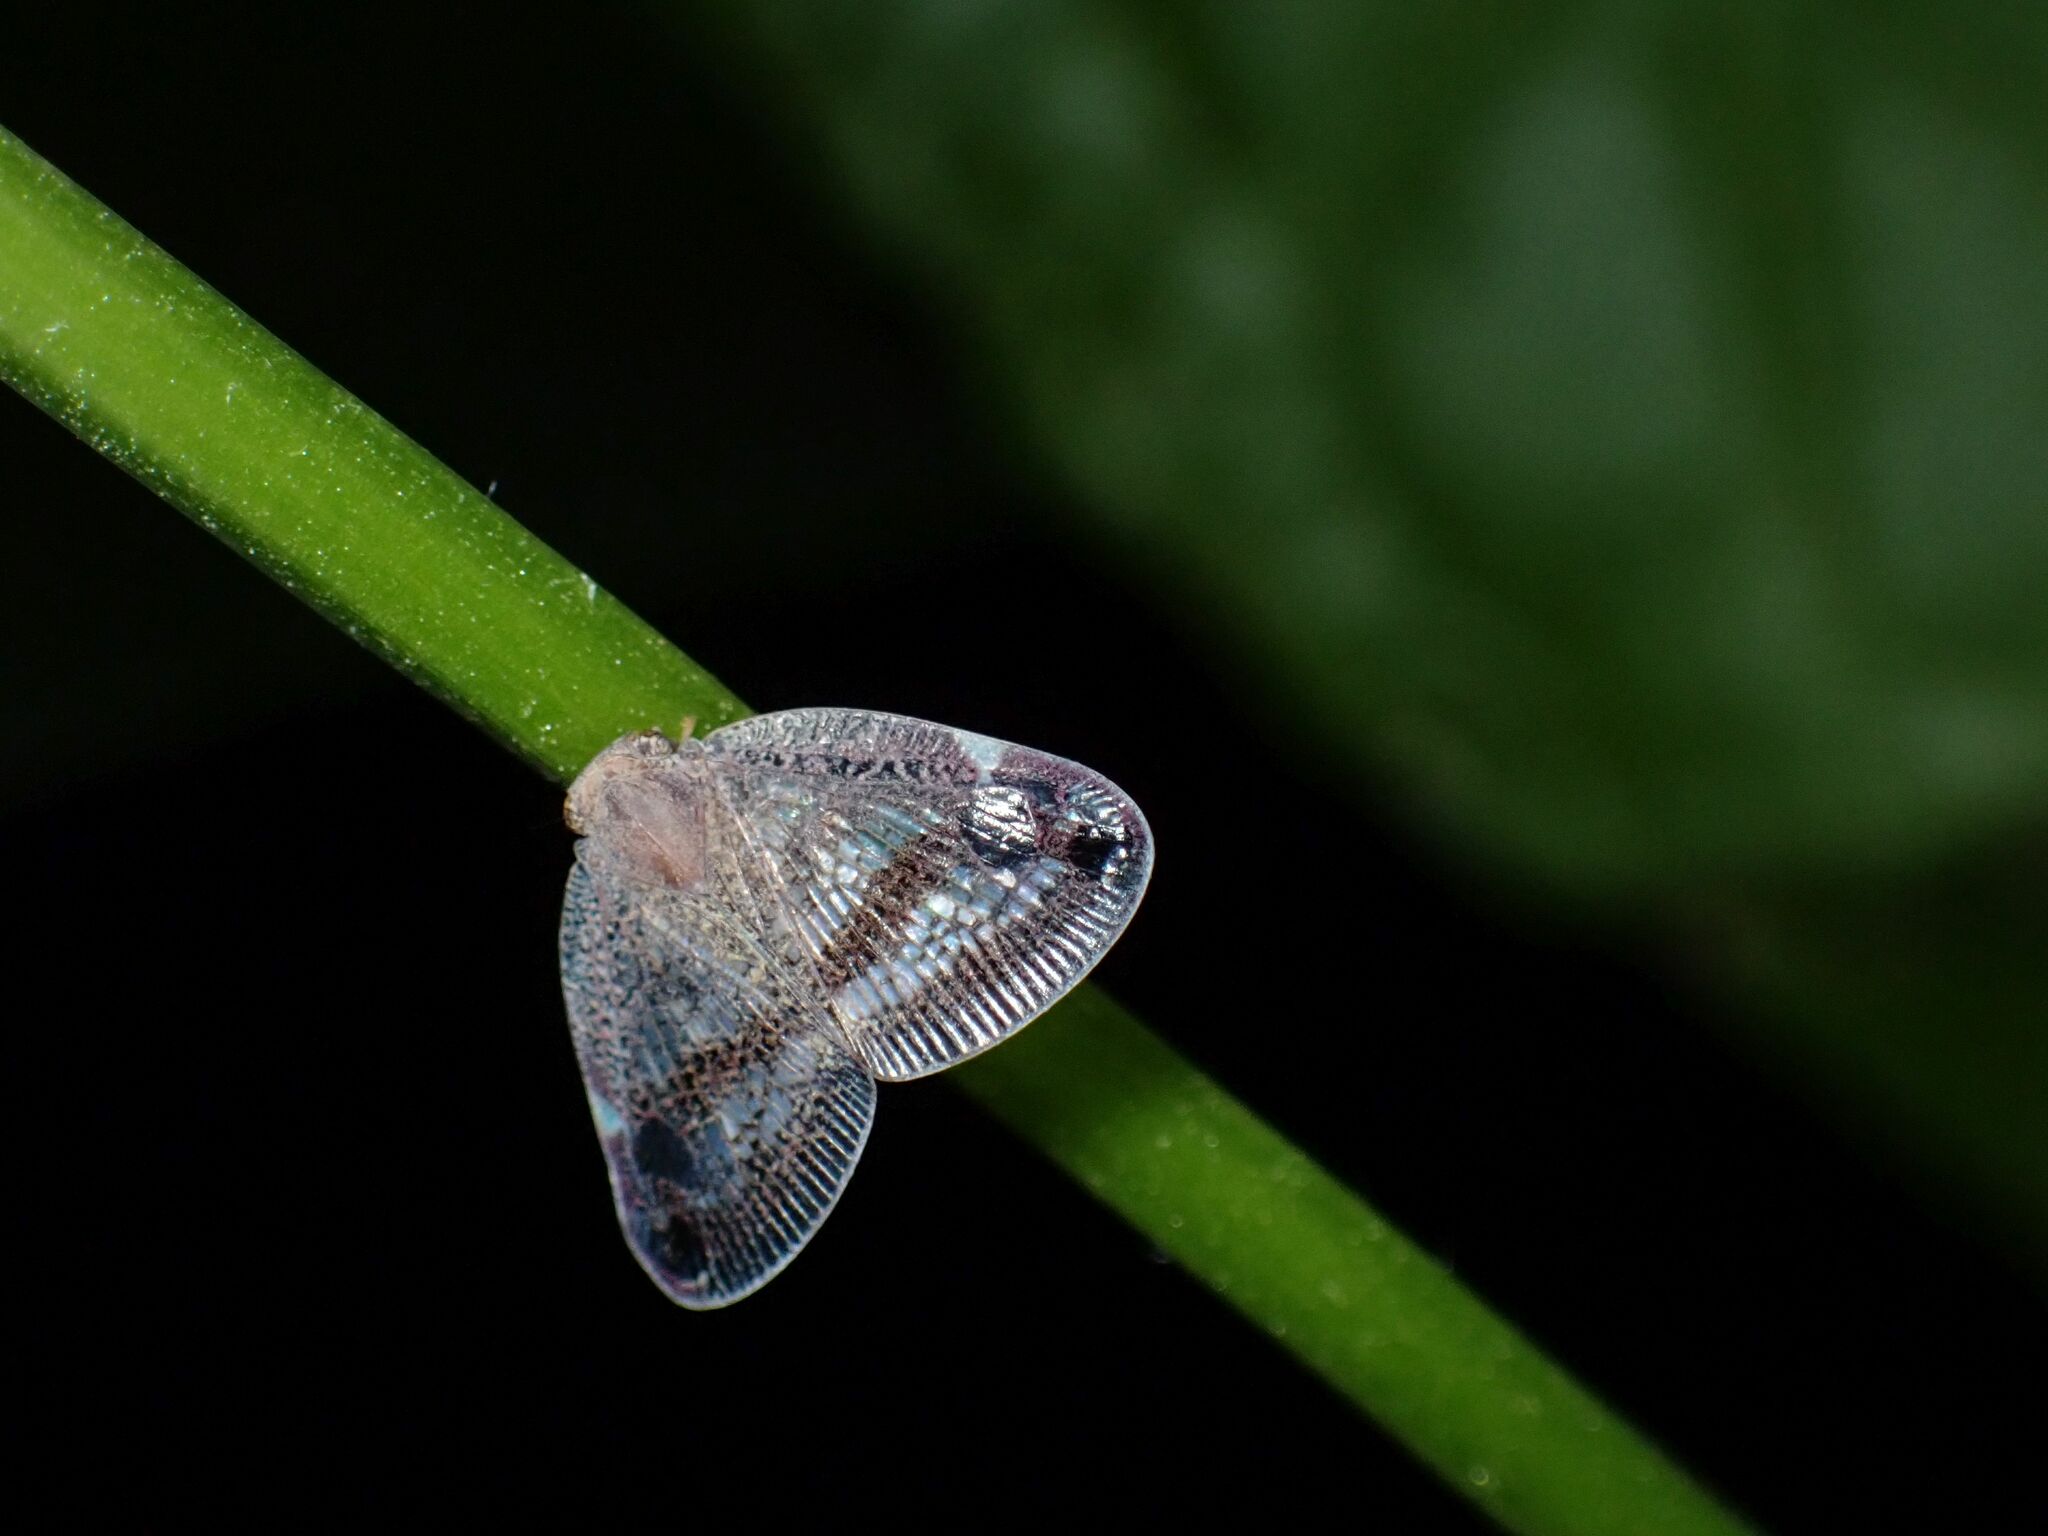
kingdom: Animalia
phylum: Arthropoda
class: Insecta
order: Hemiptera
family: Ricaniidae
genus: Parapiromis
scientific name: Parapiromis translucida
